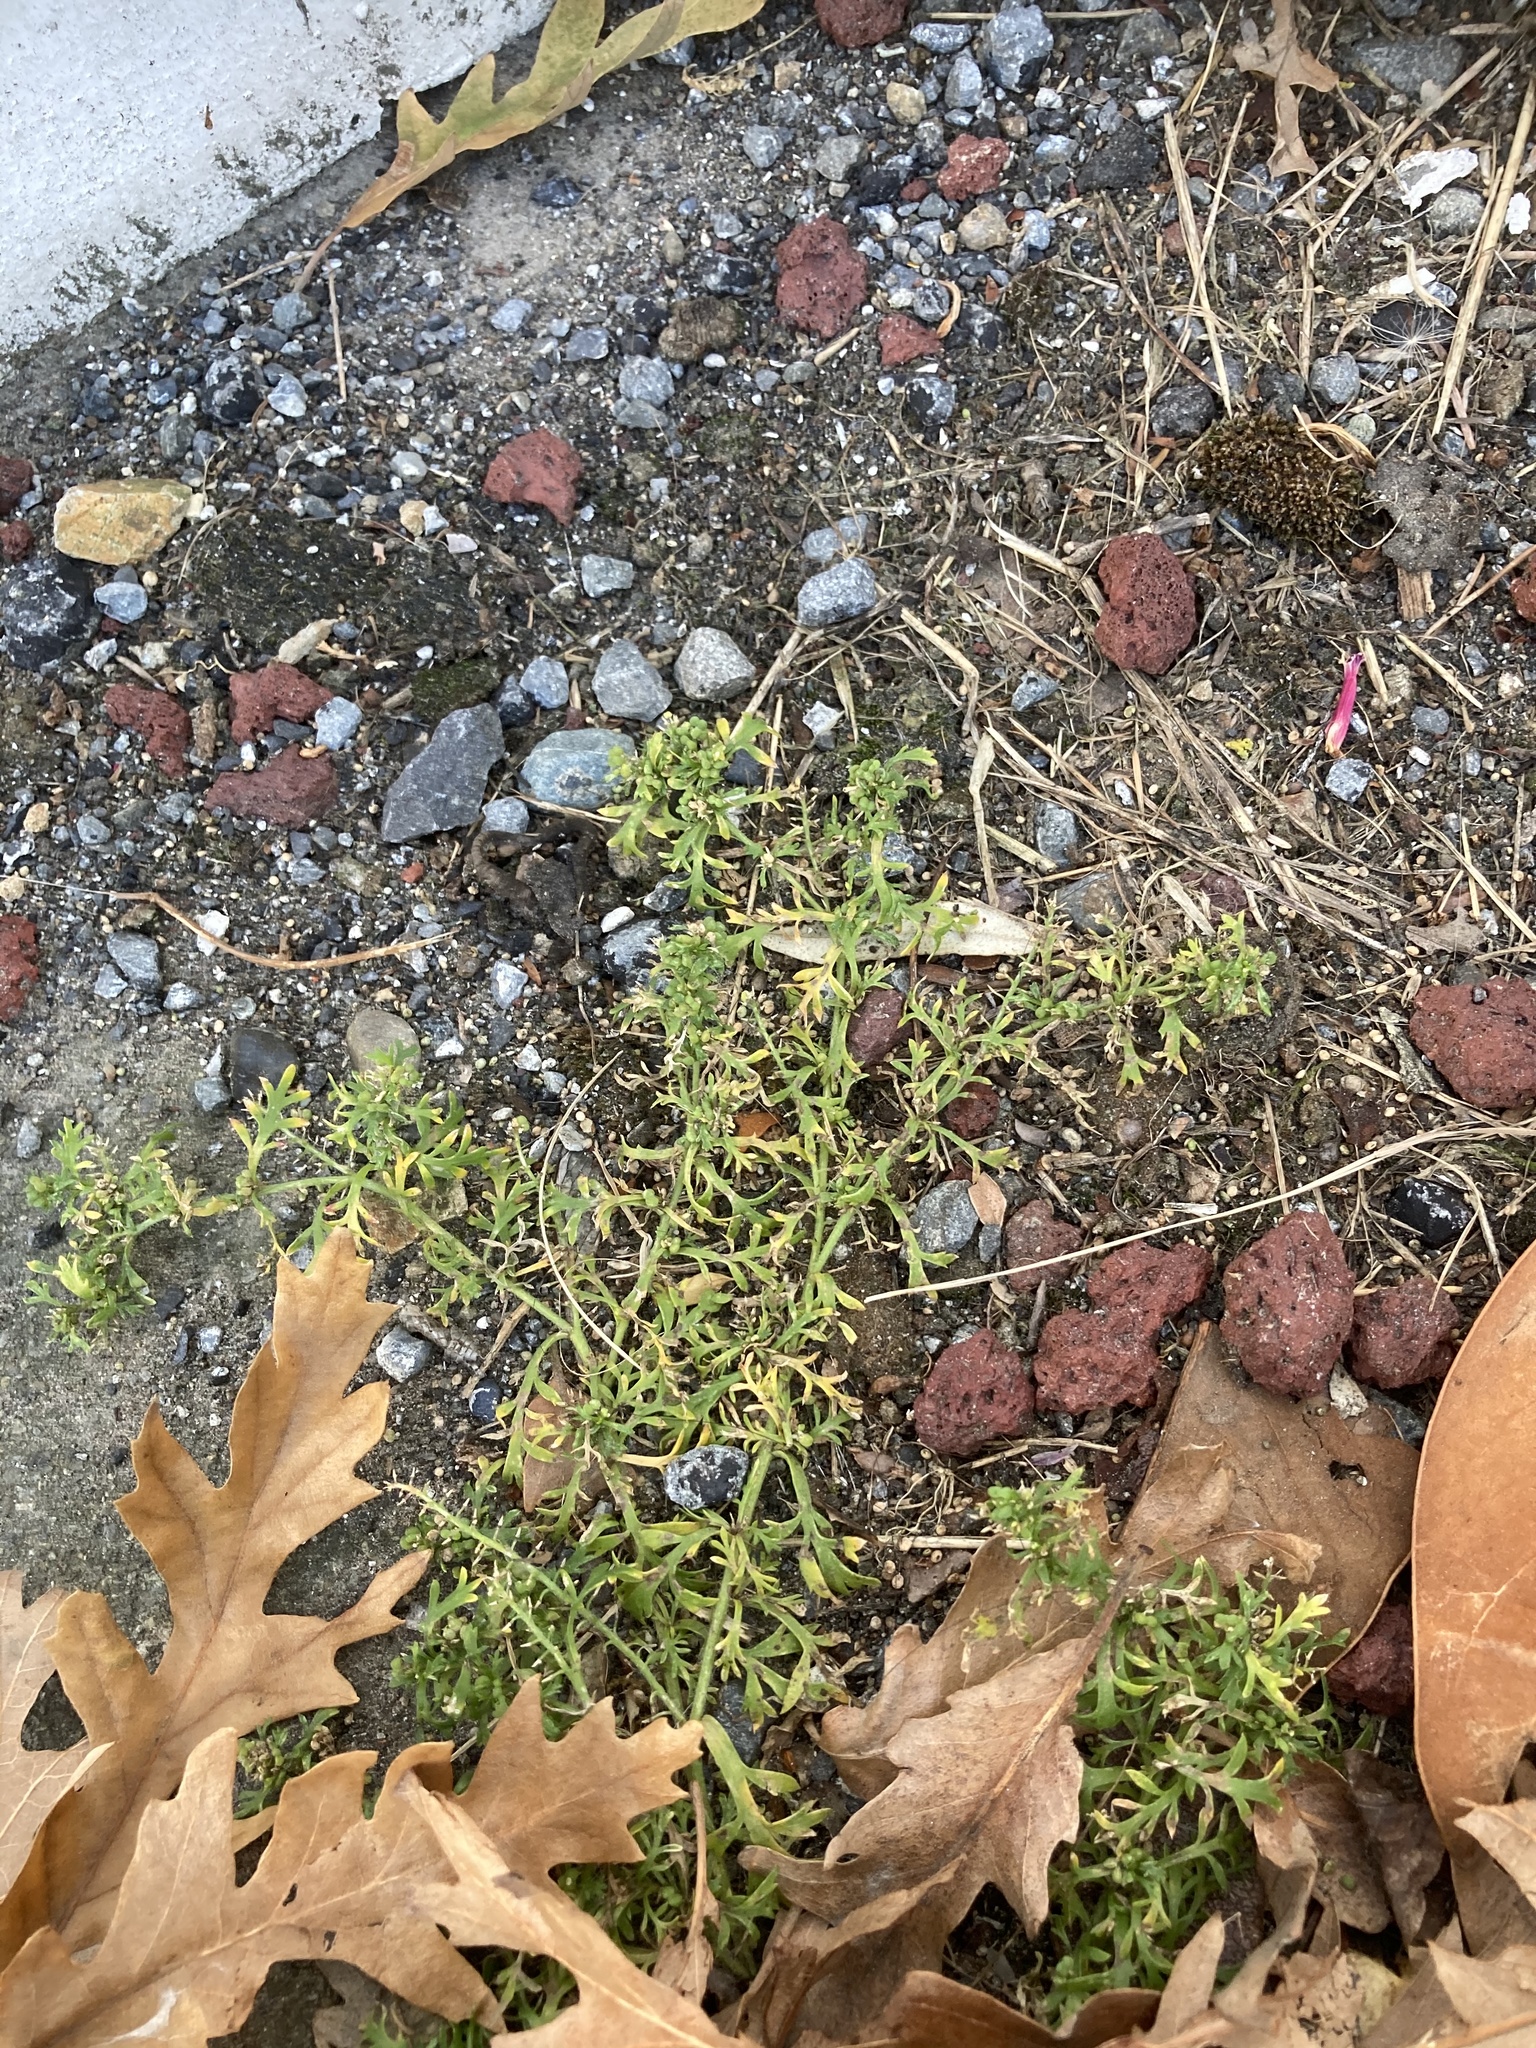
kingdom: Plantae
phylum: Tracheophyta
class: Magnoliopsida
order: Brassicales
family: Brassicaceae
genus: Lepidium
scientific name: Lepidium didymum
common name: Lesser swinecress
